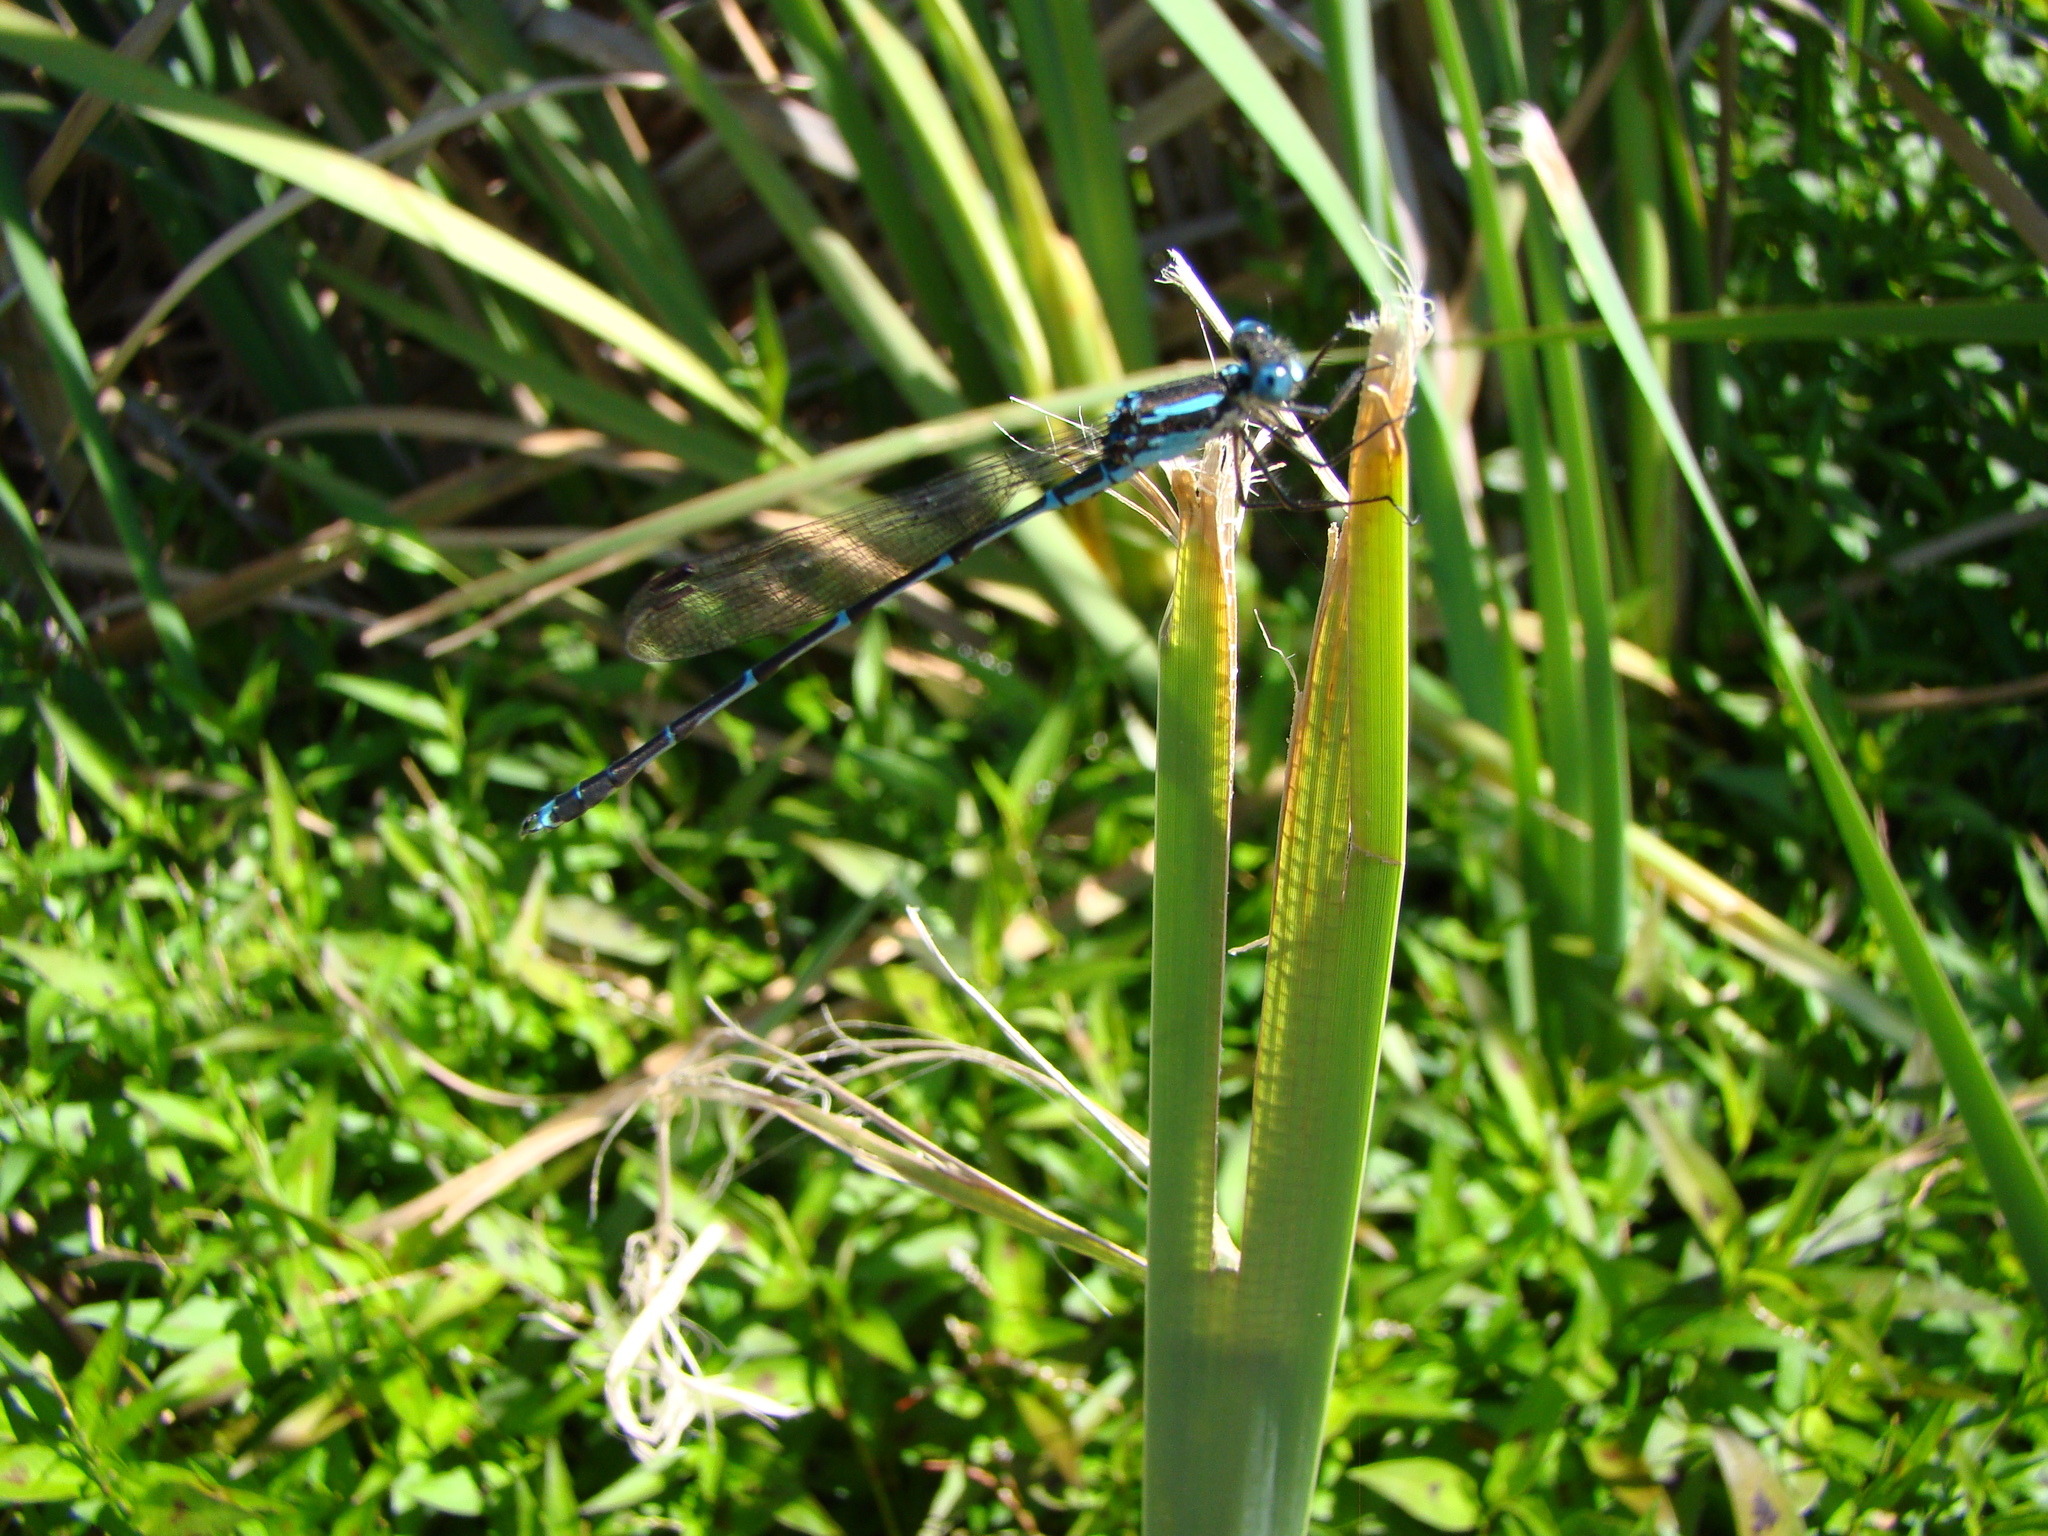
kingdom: Animalia
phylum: Arthropoda
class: Insecta
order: Odonata
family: Lestidae
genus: Austrolestes
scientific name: Austrolestes colensonis
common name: Blue damselfly
